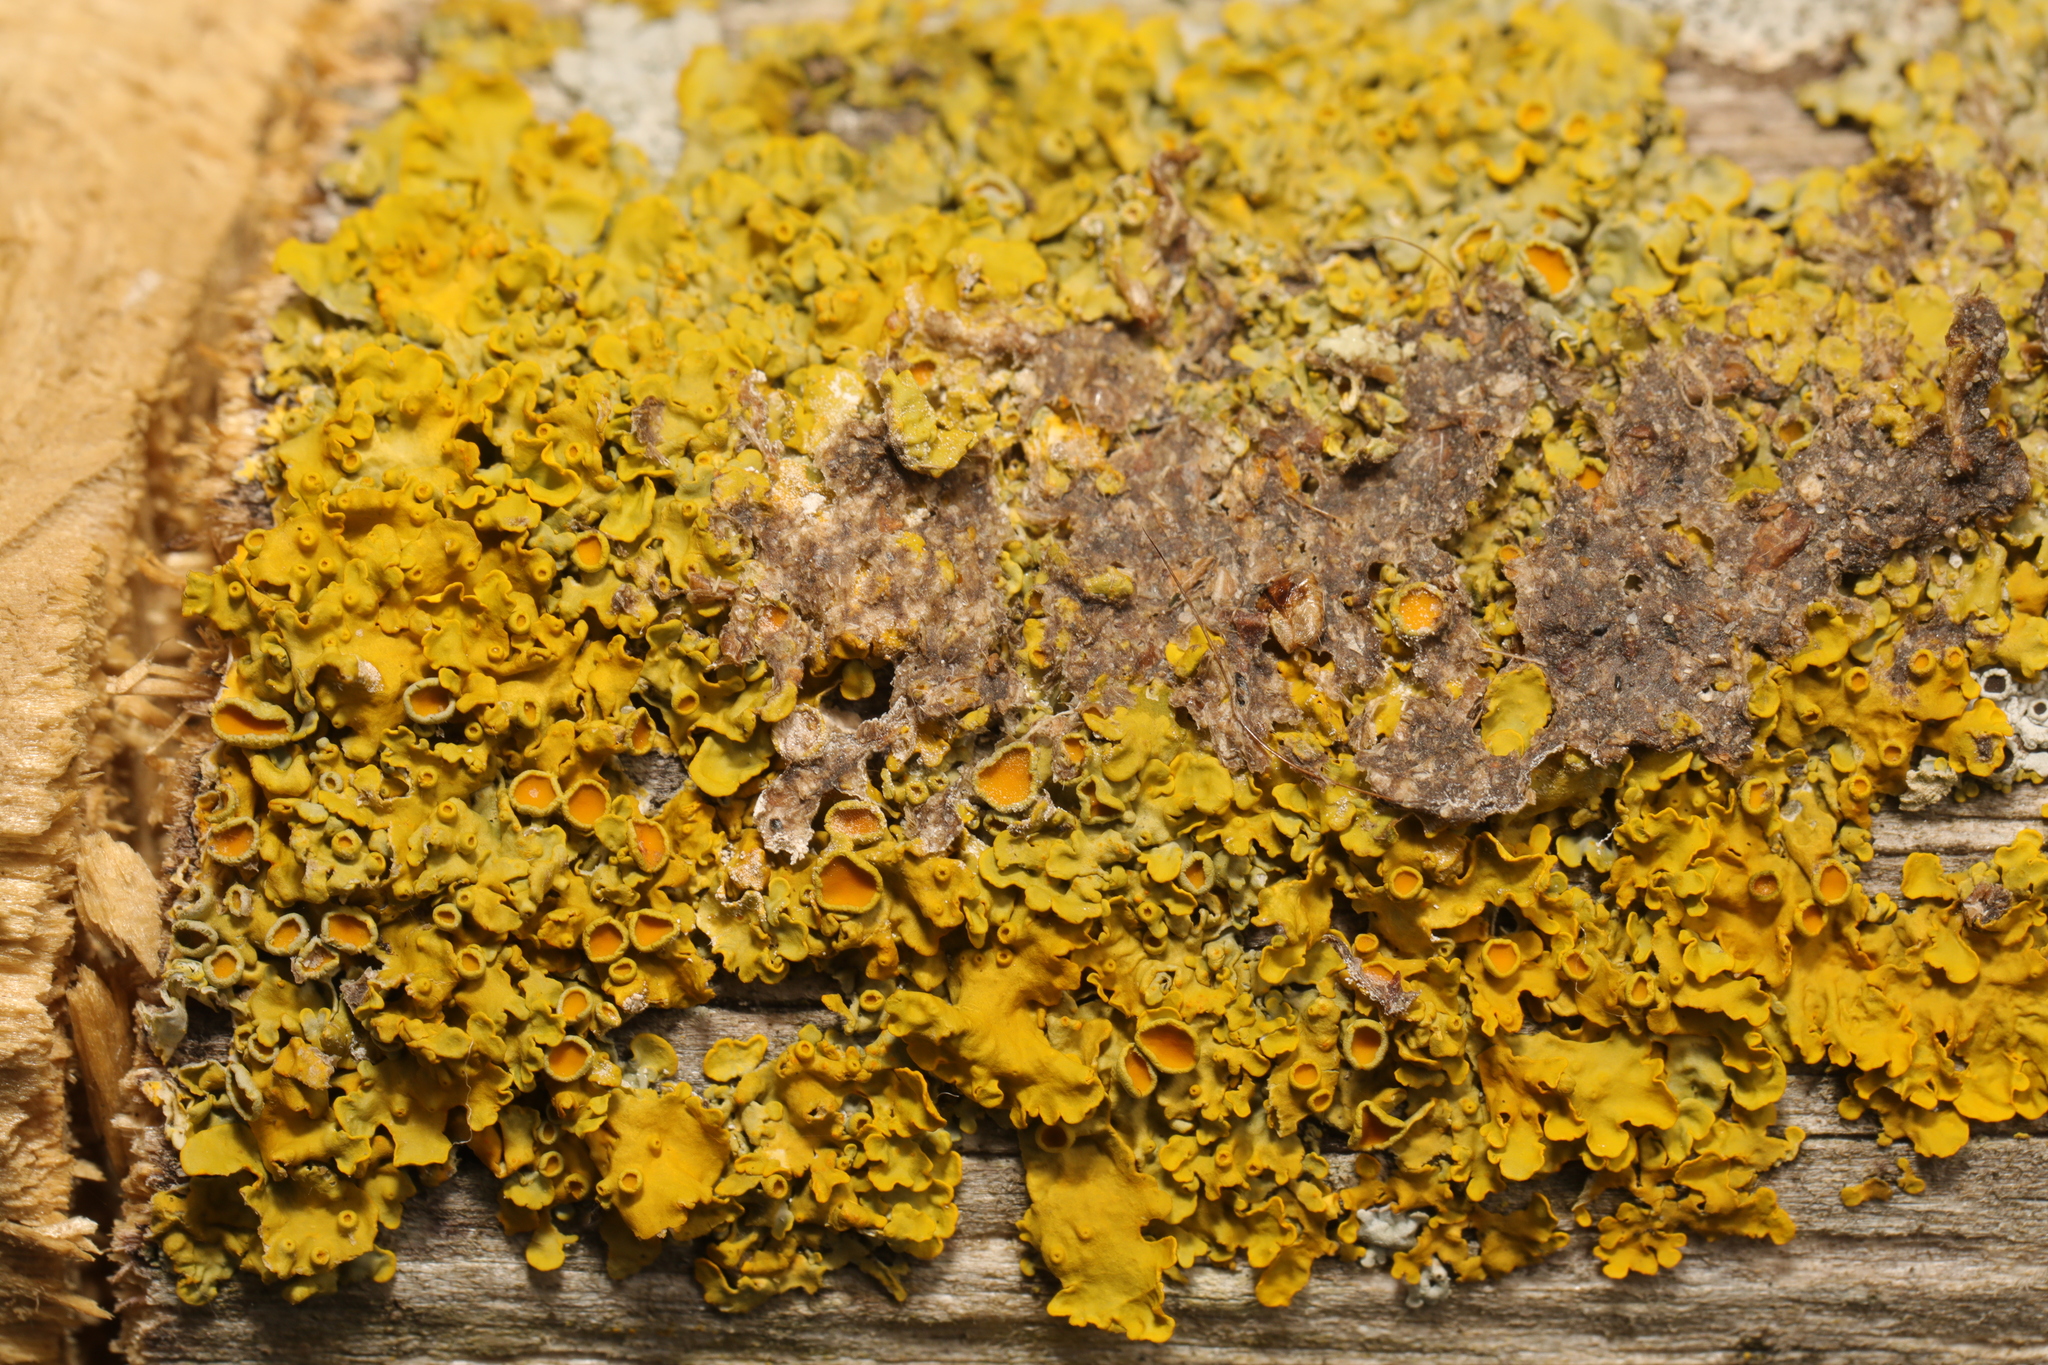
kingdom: Fungi
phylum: Ascomycota
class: Lecanoromycetes
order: Teloschistales
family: Teloschistaceae
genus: Xanthoria
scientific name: Xanthoria parietina
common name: Common orange lichen
